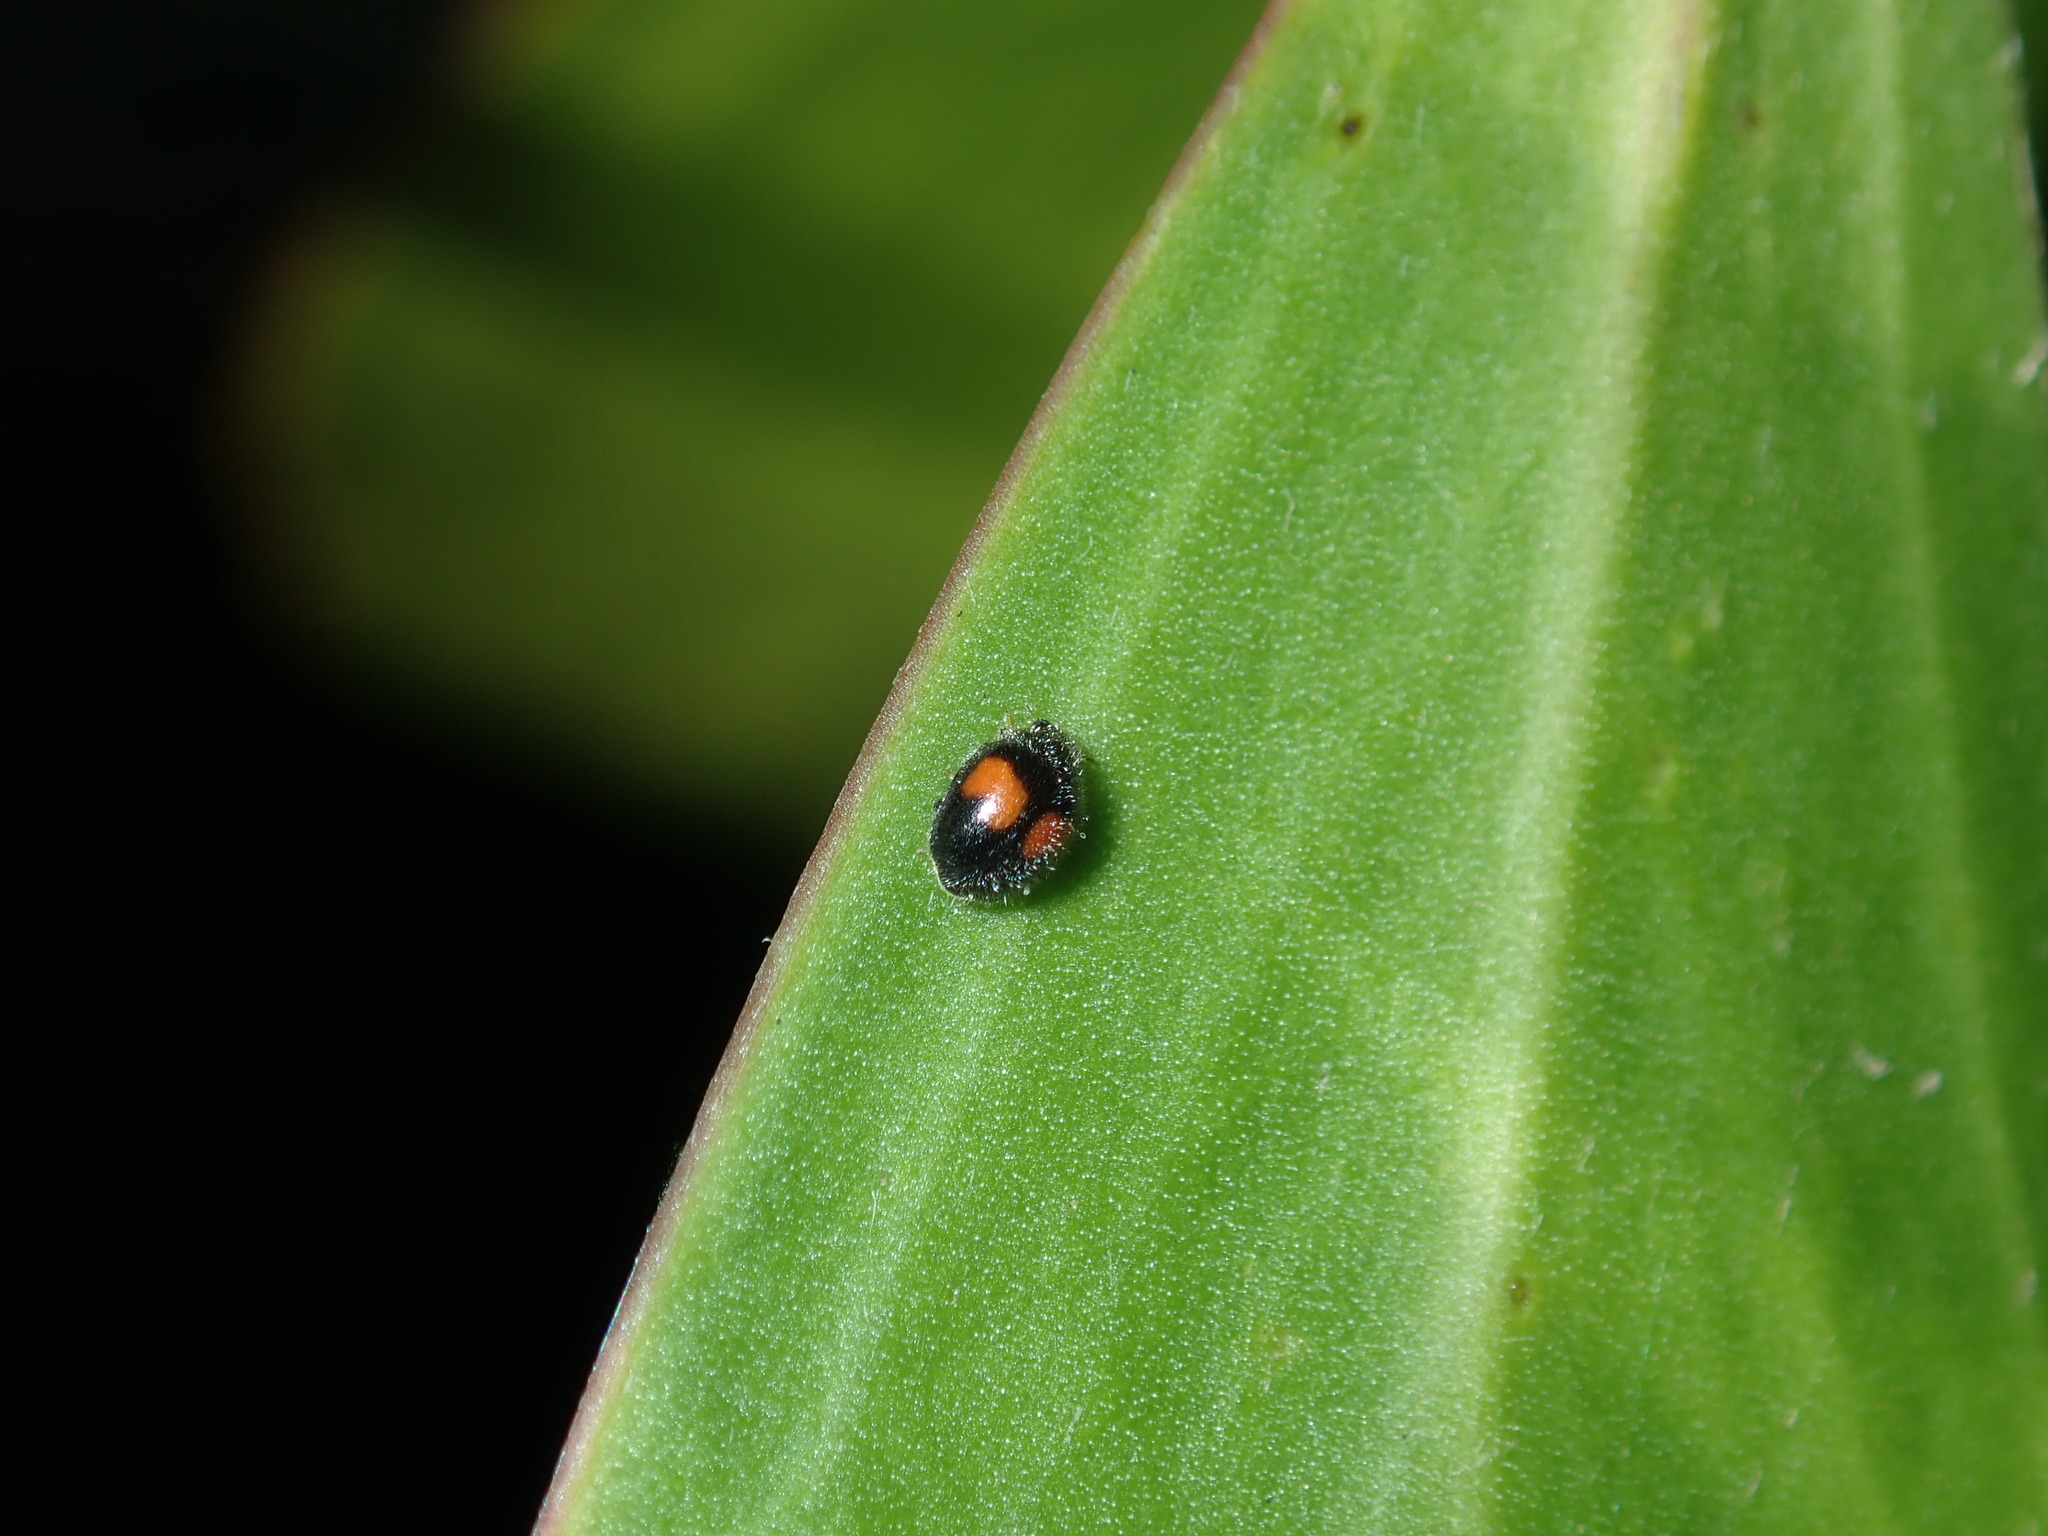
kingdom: Animalia
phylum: Arthropoda
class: Insecta
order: Coleoptera
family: Coccinellidae
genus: Scymnus
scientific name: Scymnus notescens
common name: Minute two-spotted ladybird beetle
